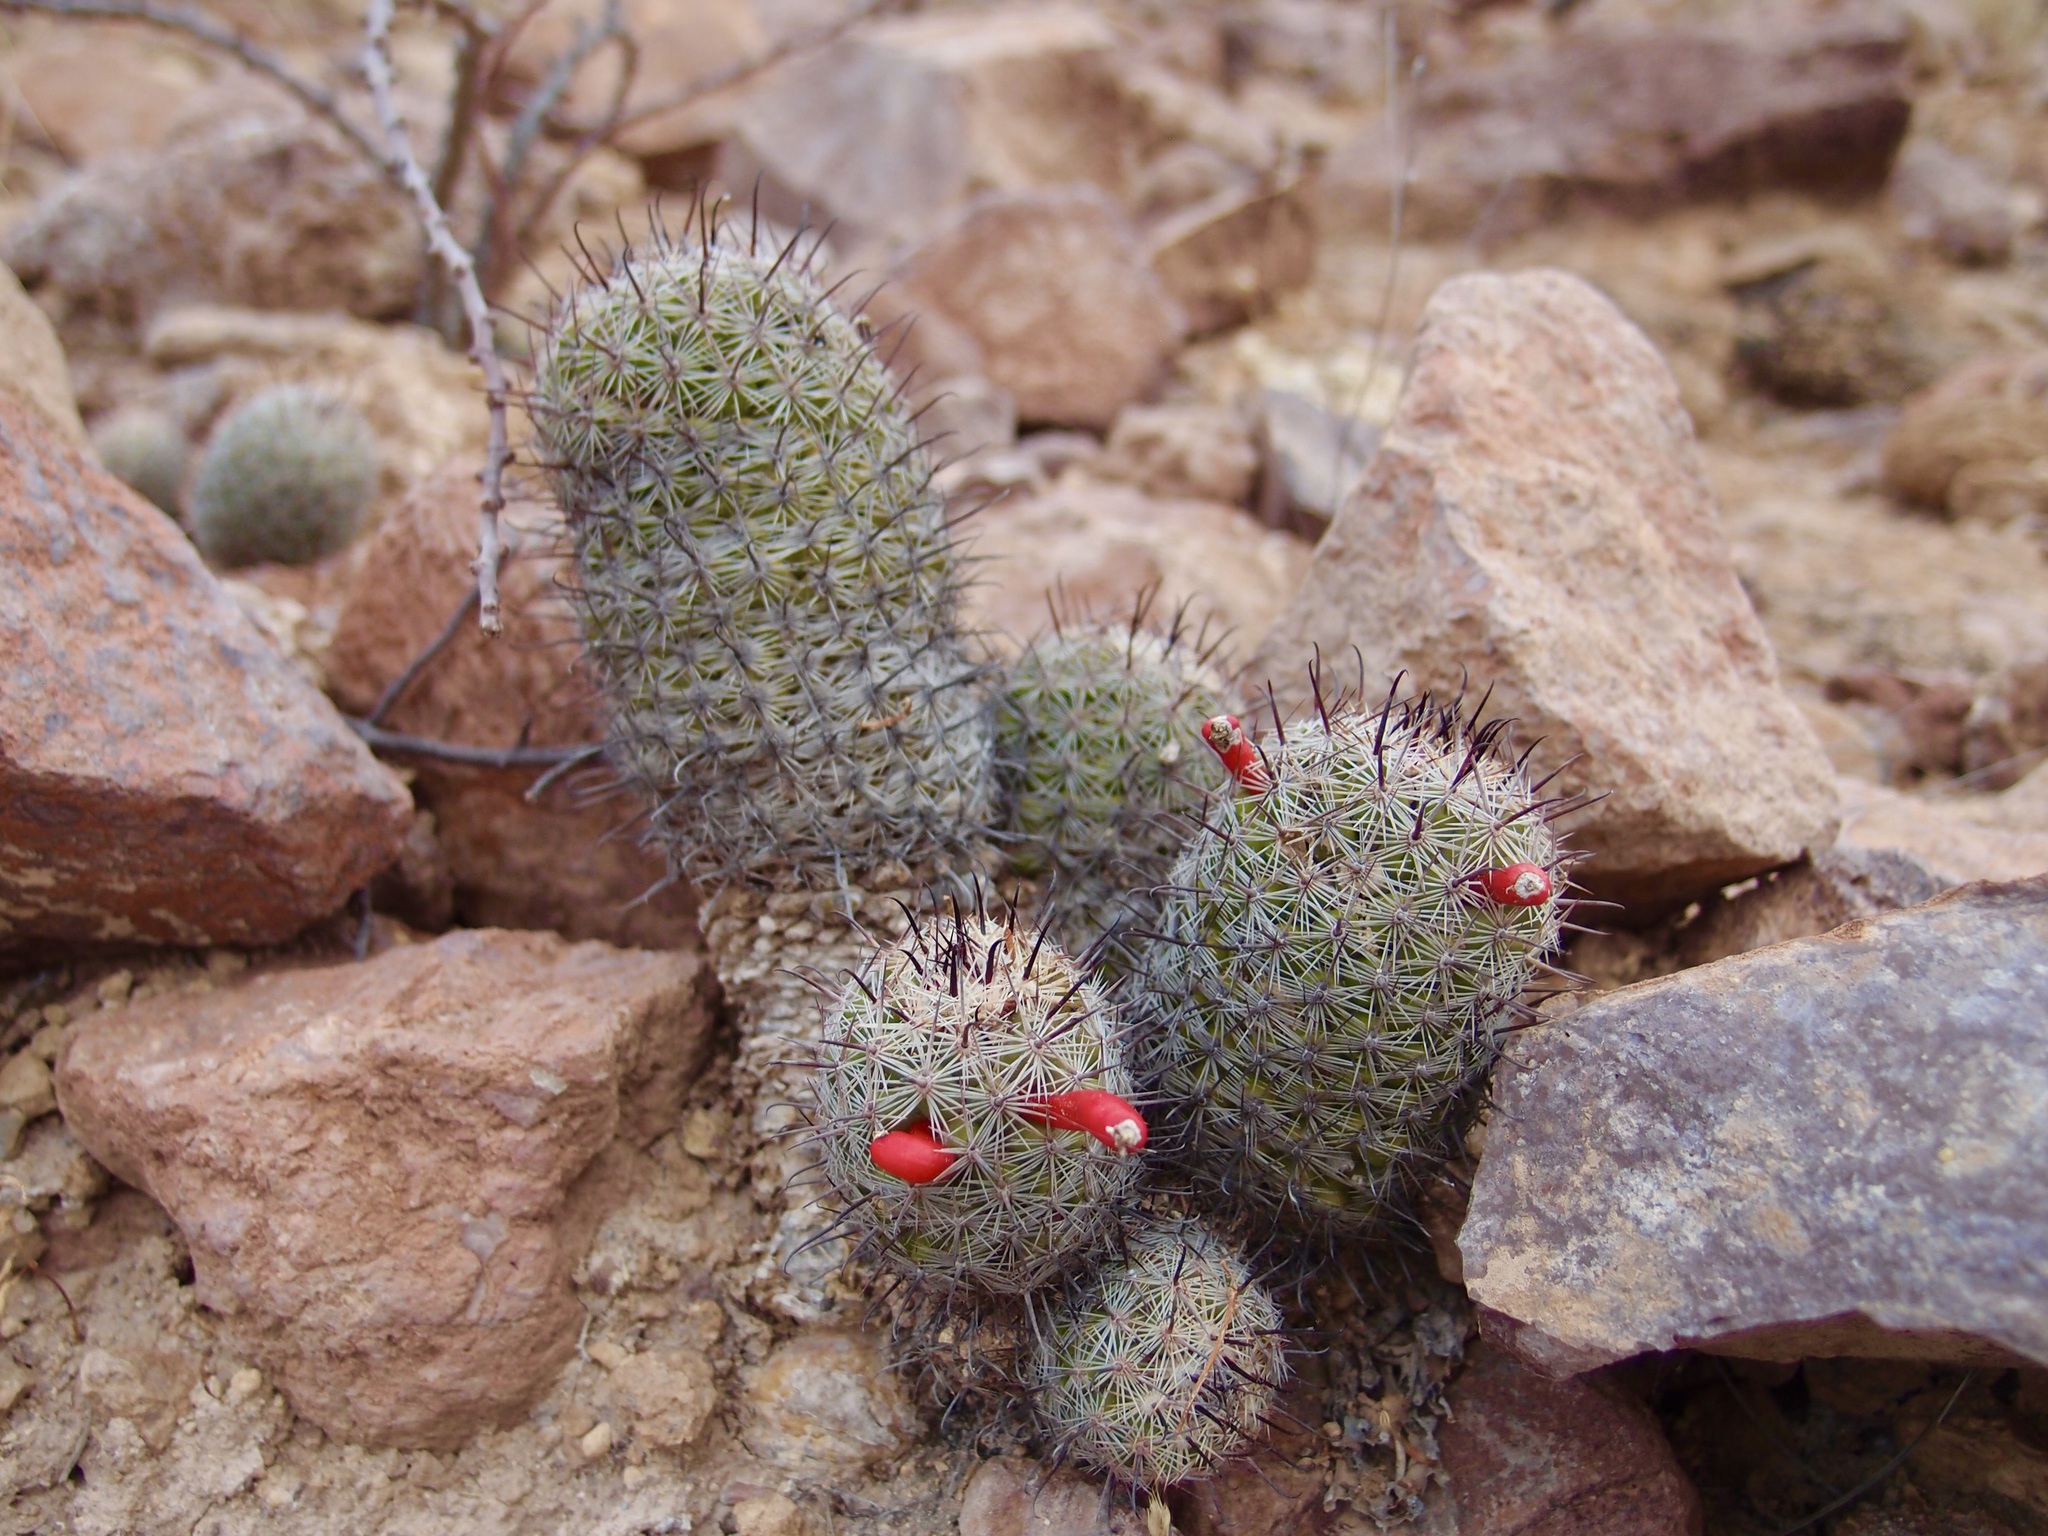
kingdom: Plantae
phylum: Tracheophyta
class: Magnoliopsida
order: Caryophyllales
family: Cactaceae
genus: Cochemiea
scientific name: Cochemiea sheldonii
